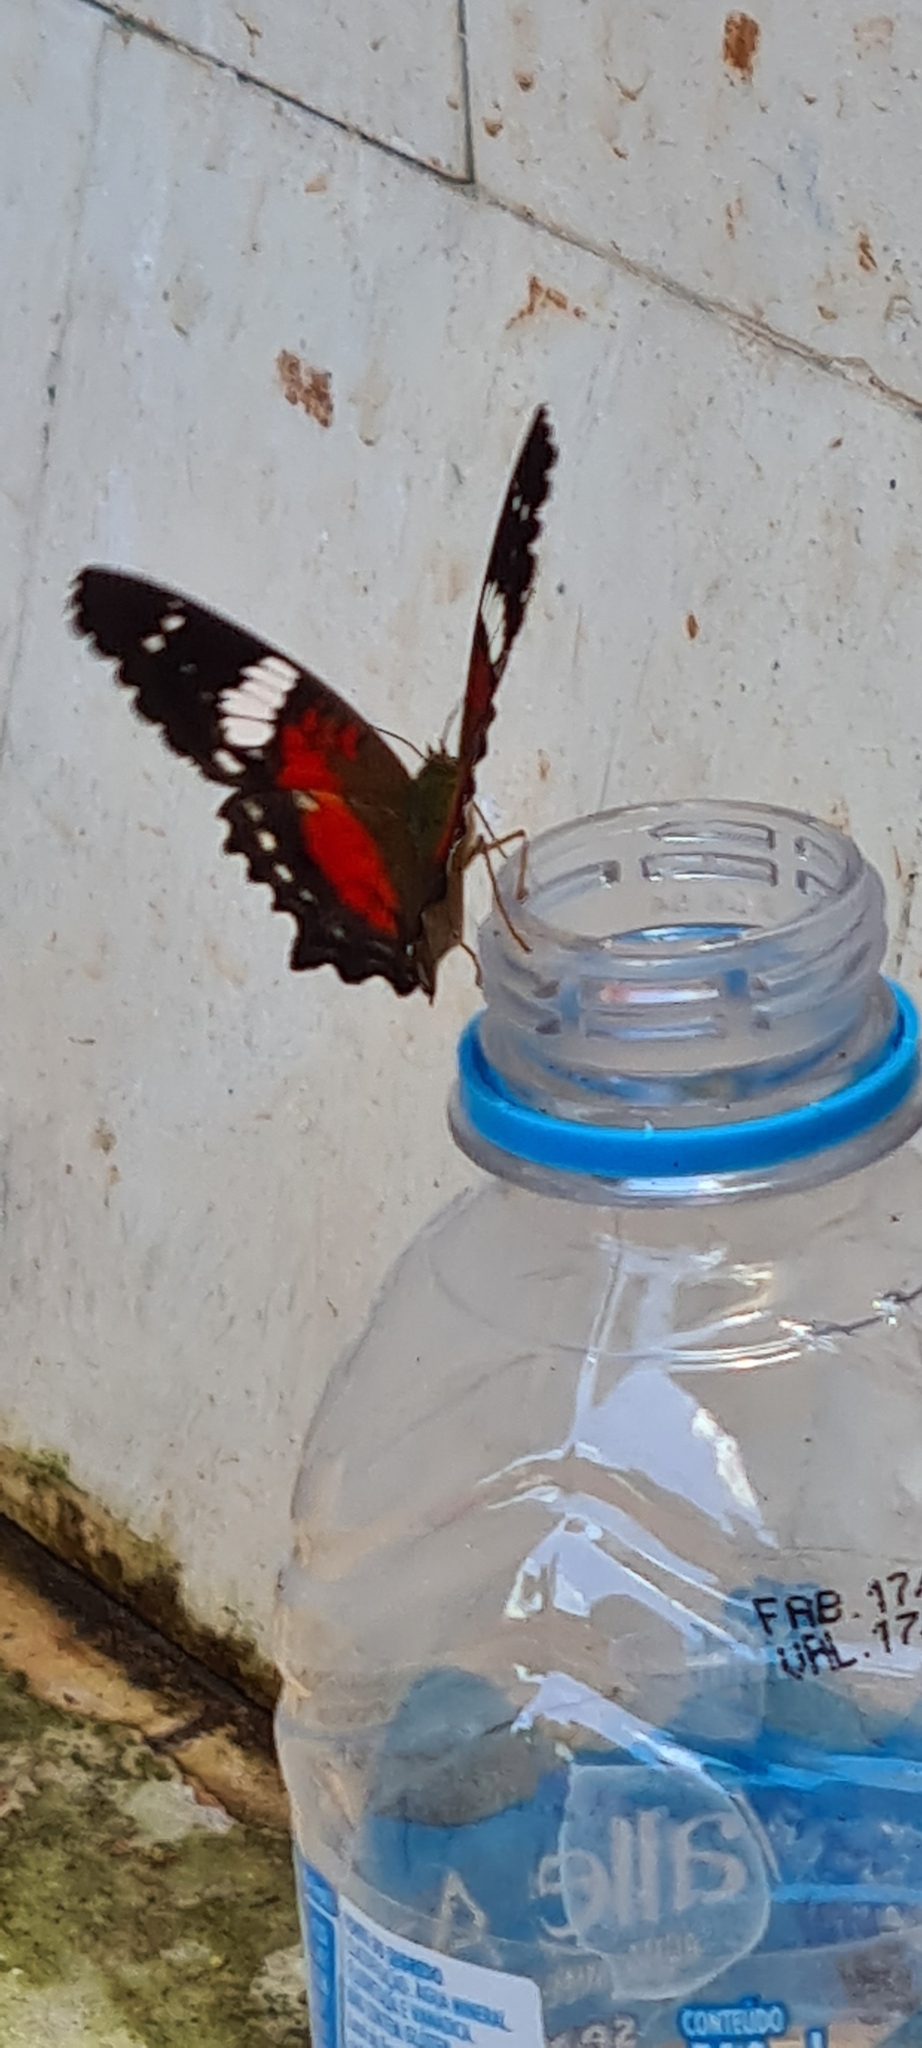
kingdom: Animalia
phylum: Arthropoda
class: Insecta
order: Lepidoptera
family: Nymphalidae
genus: Anartia
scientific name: Anartia amathea
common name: Red peacock
